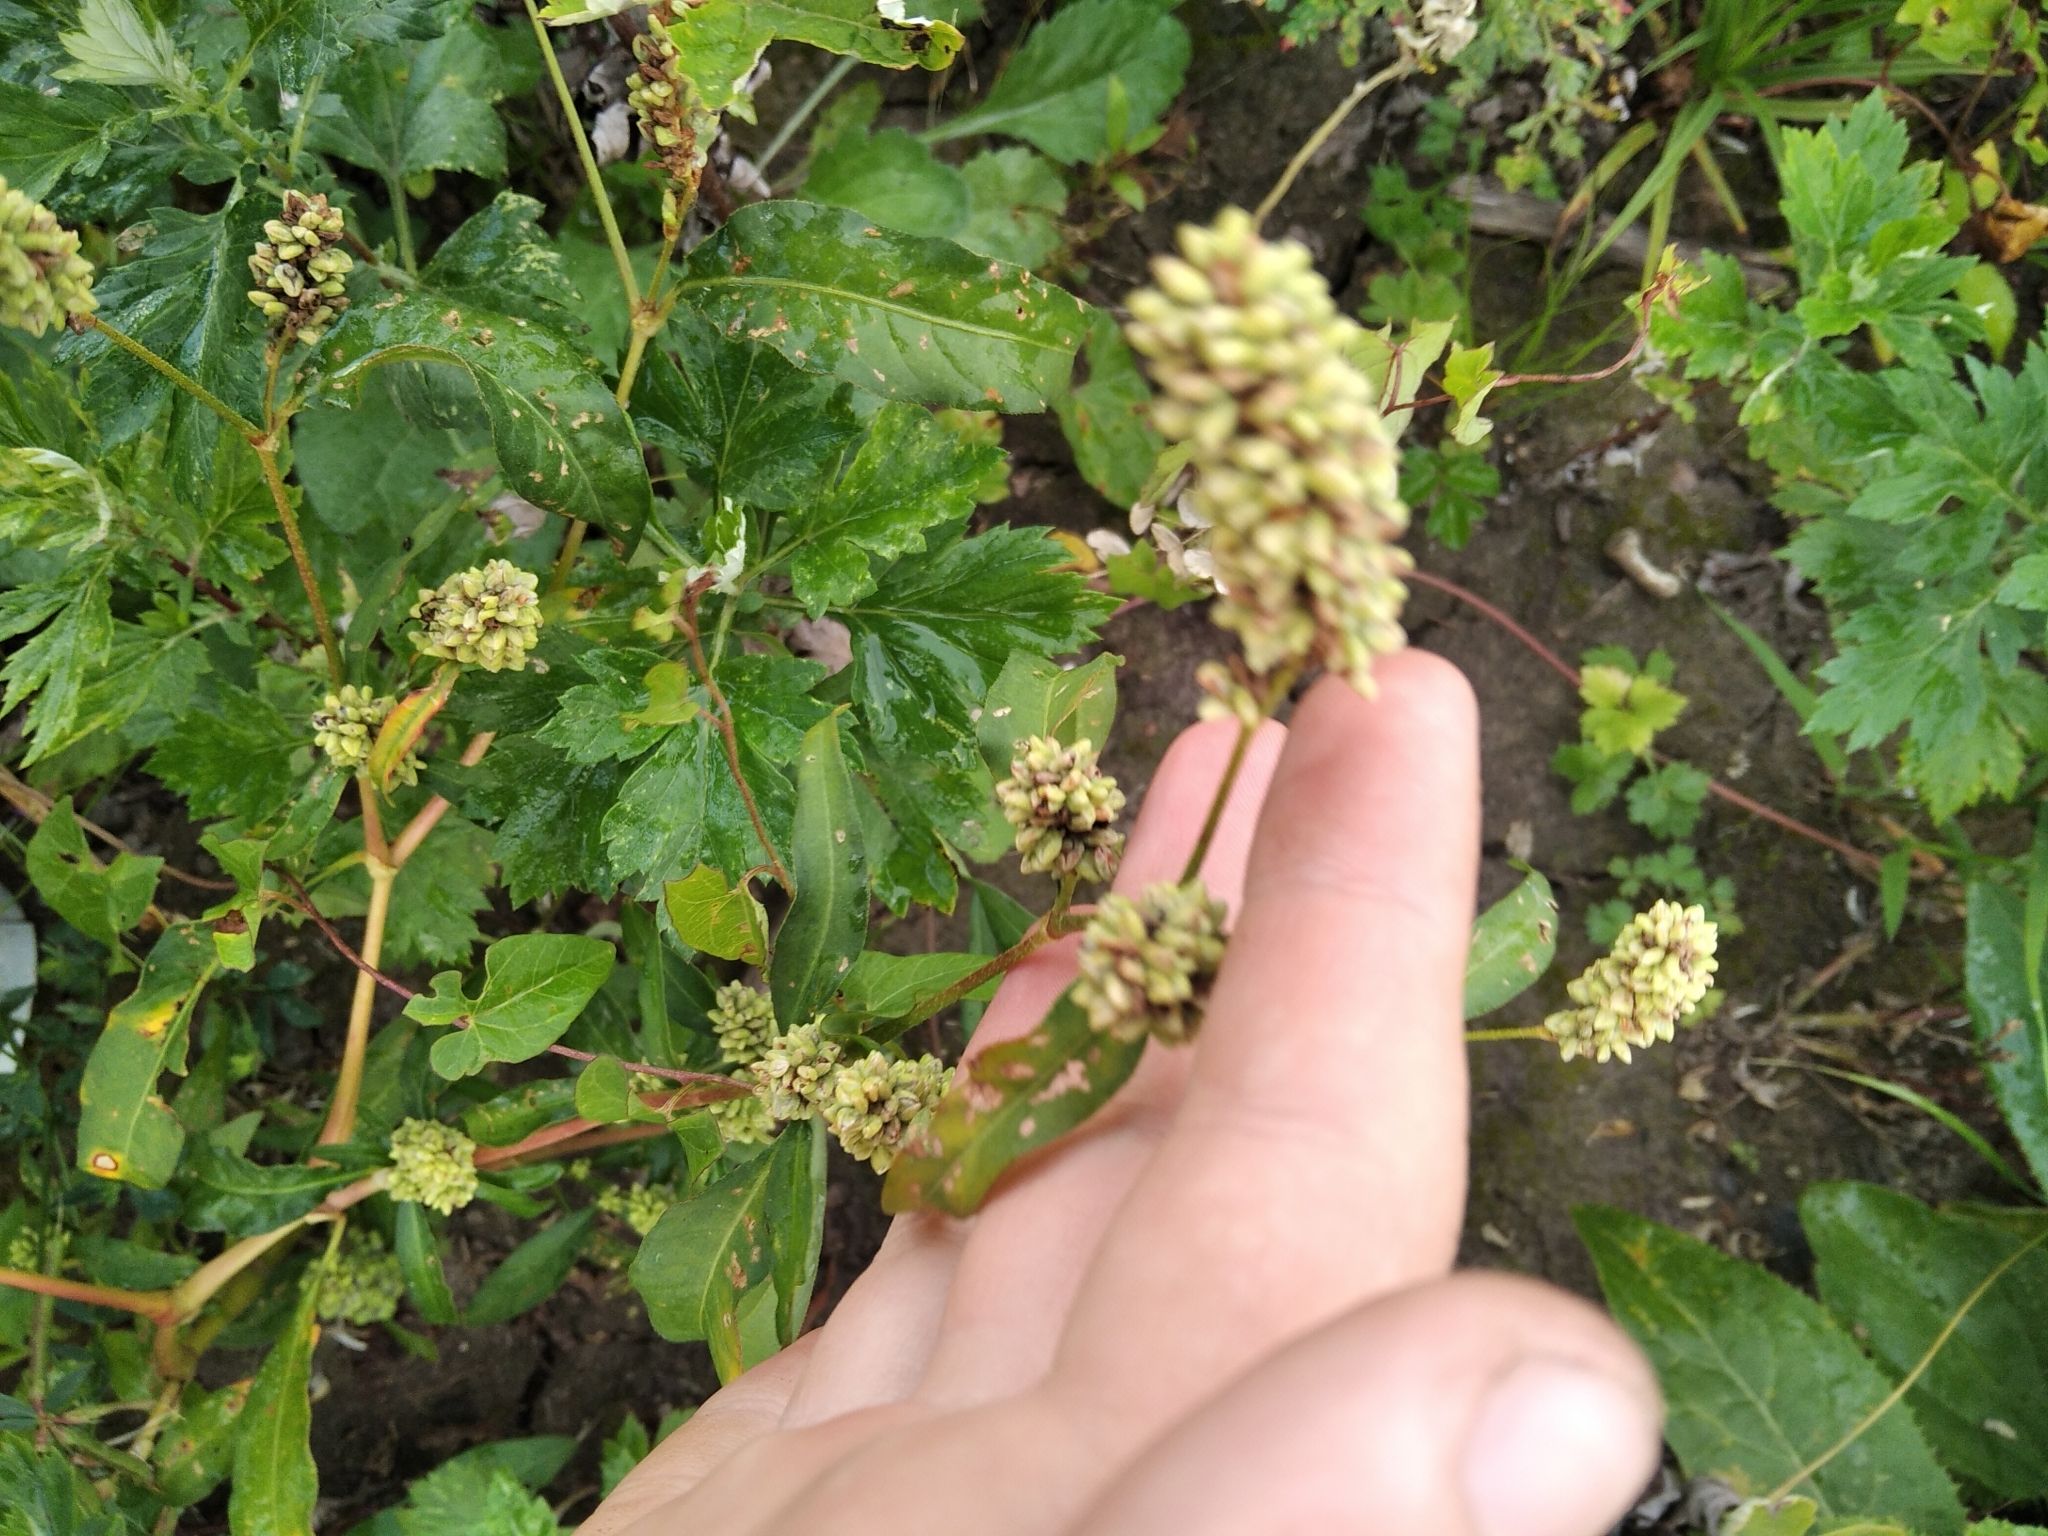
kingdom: Plantae
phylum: Tracheophyta
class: Magnoliopsida
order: Caryophyllales
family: Polygonaceae
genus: Persicaria
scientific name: Persicaria lapathifolia
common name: Curlytop knotweed
